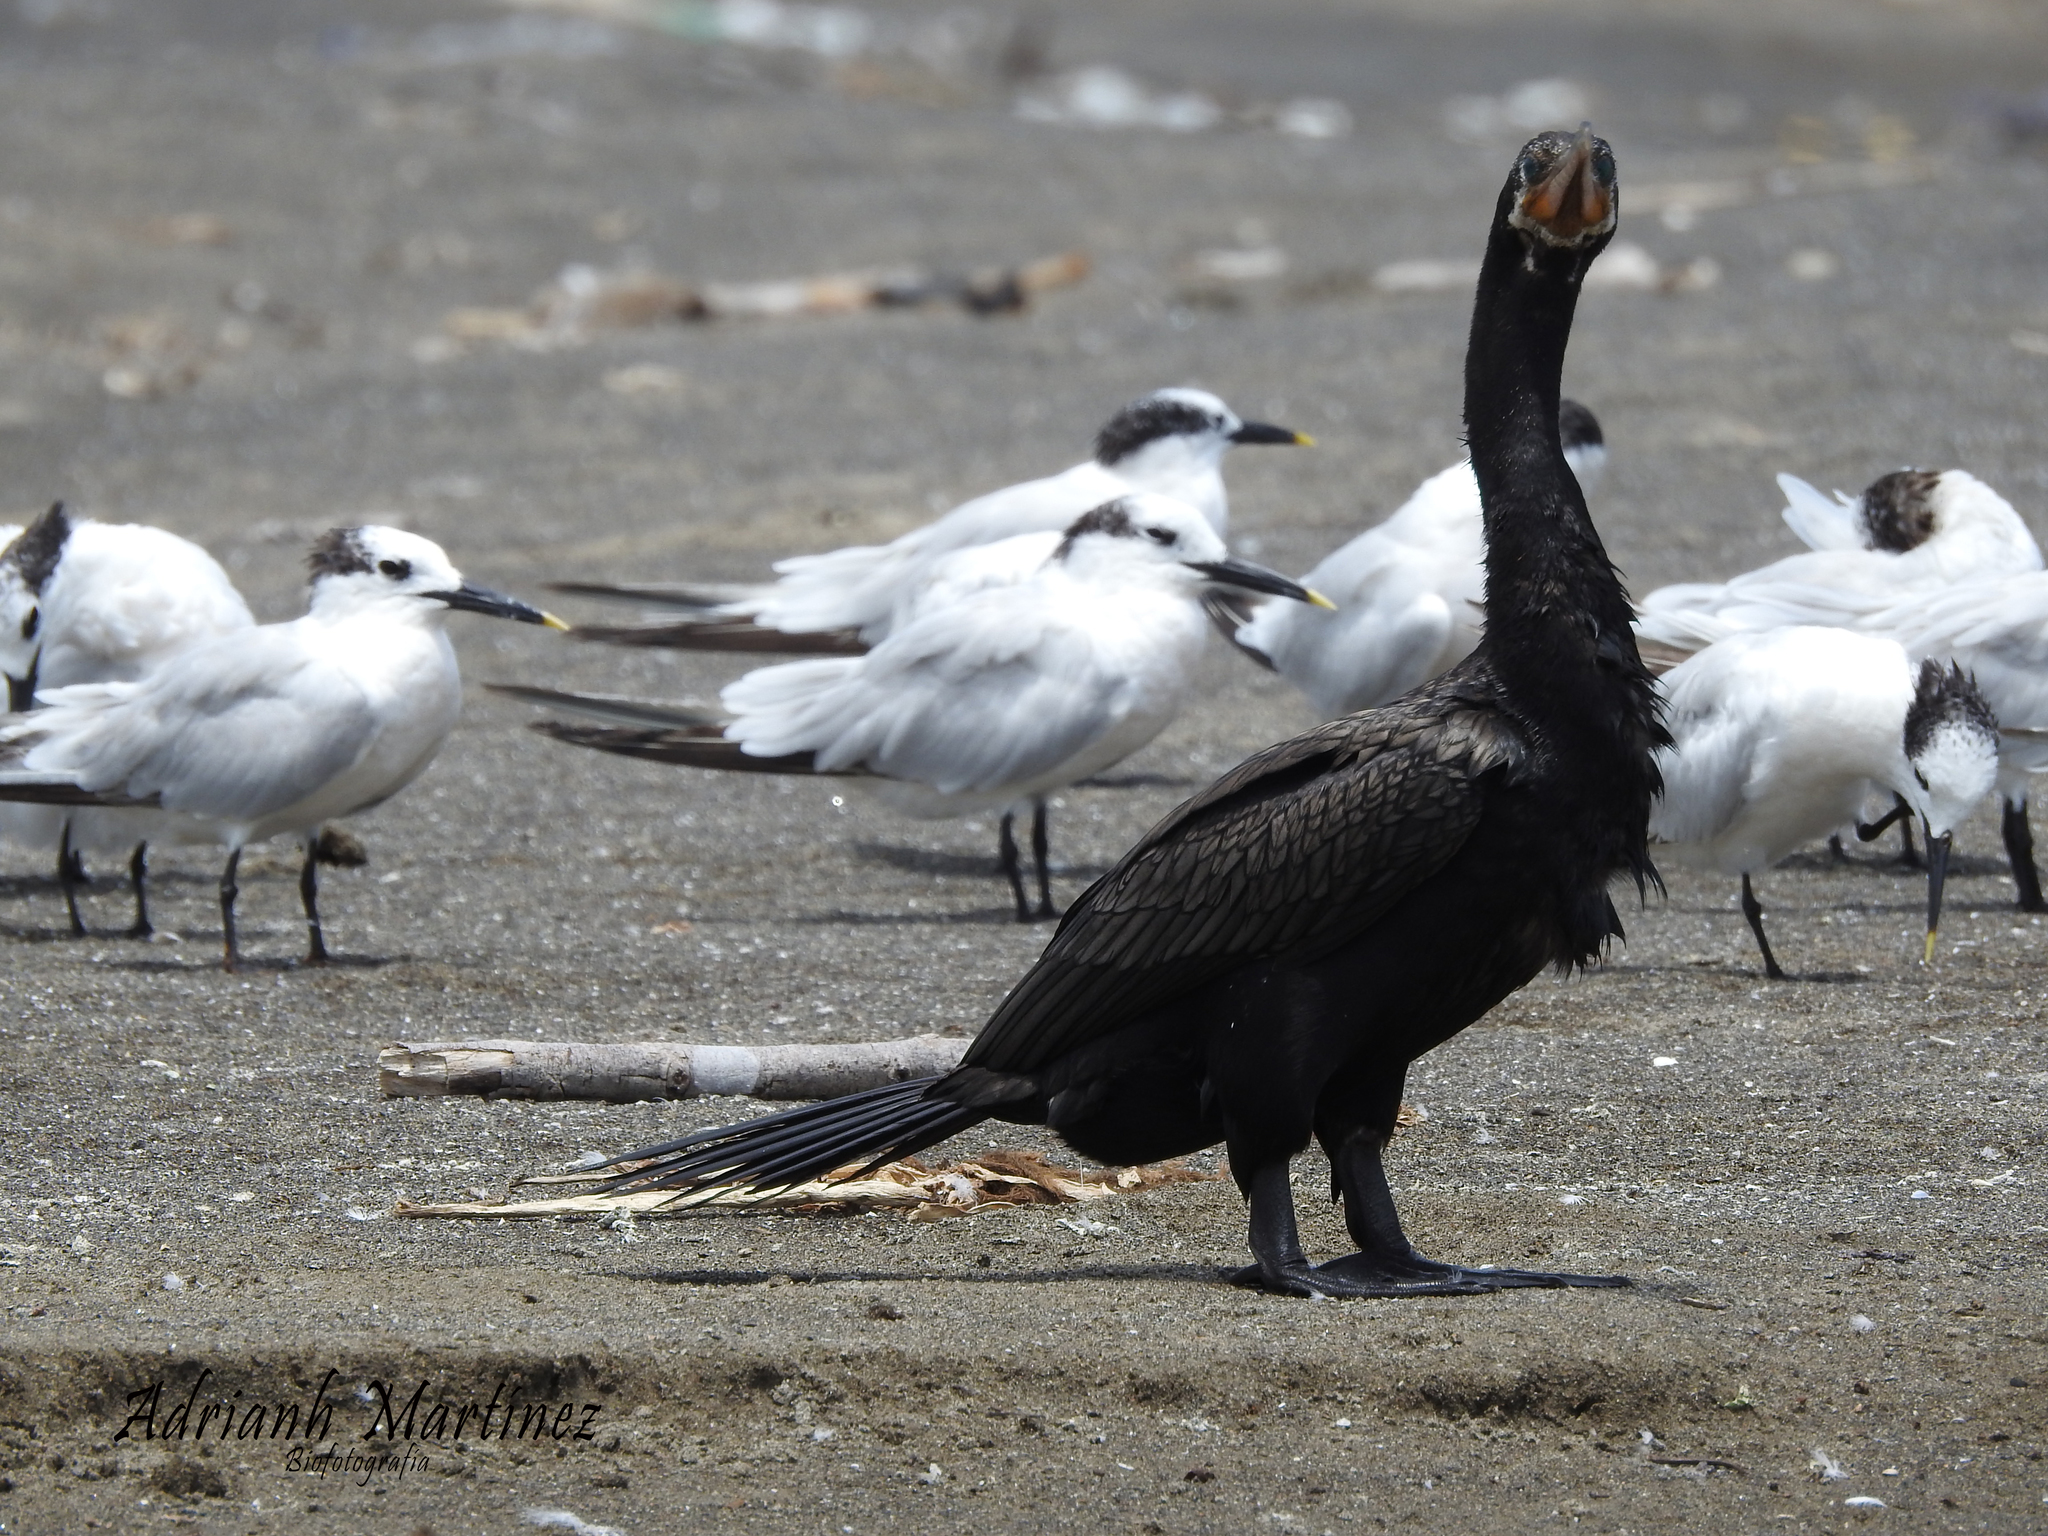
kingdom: Animalia
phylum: Chordata
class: Aves
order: Suliformes
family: Phalacrocoracidae
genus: Phalacrocorax
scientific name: Phalacrocorax brasilianus
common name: Neotropic cormorant
